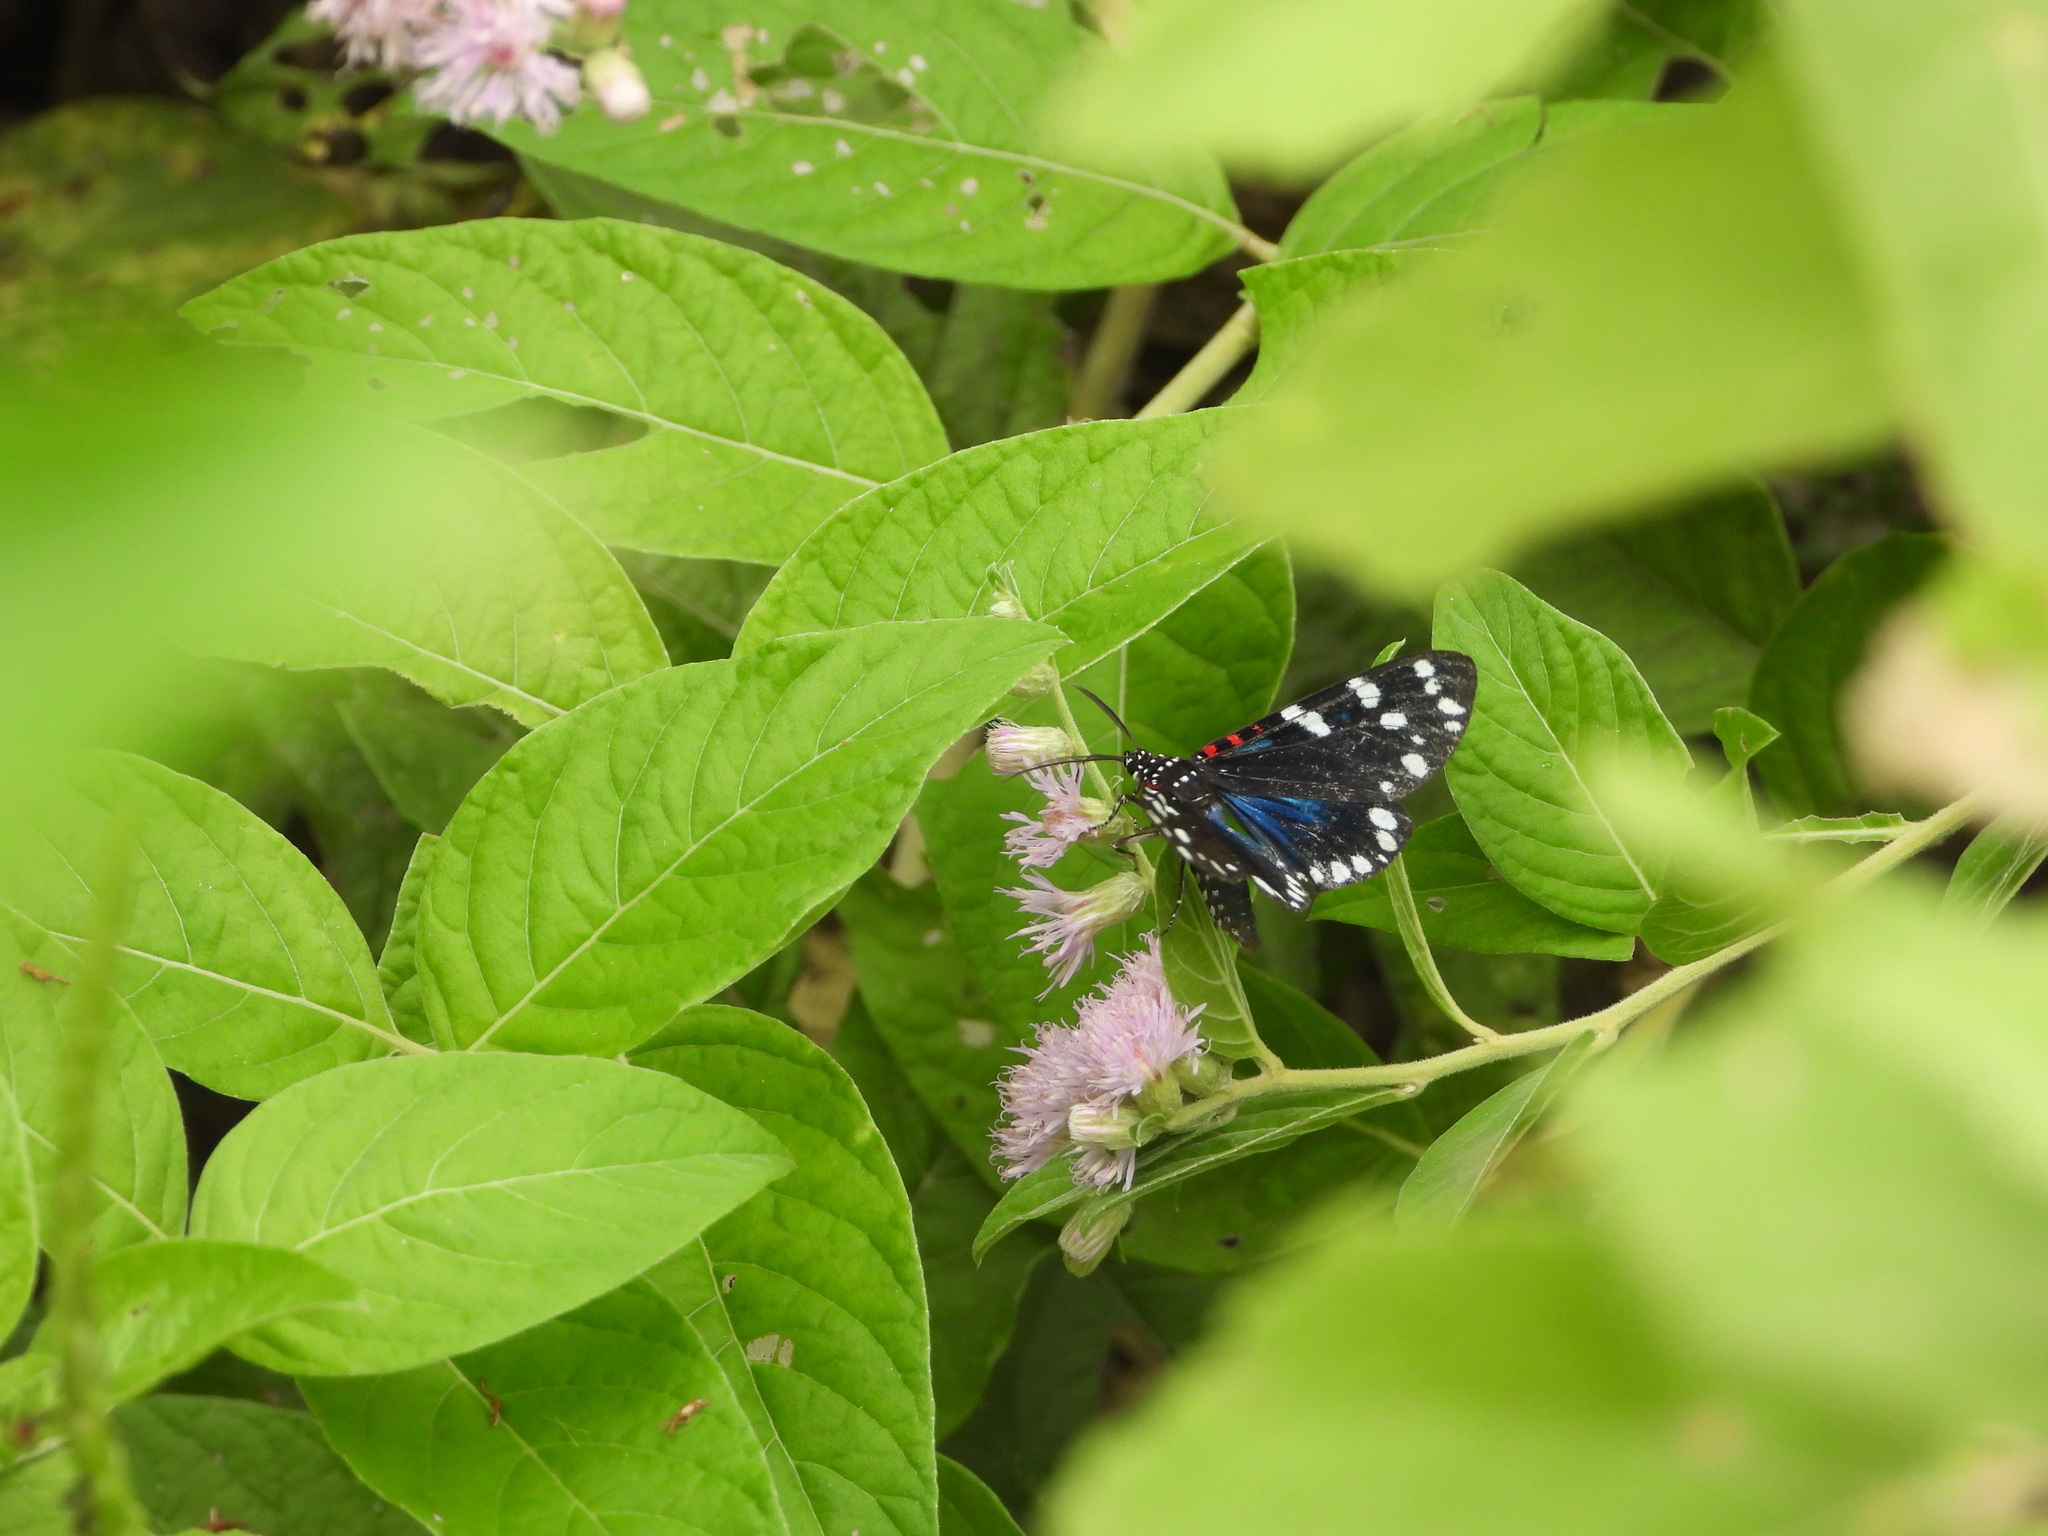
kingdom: Animalia
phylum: Arthropoda
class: Insecta
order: Lepidoptera
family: Erebidae
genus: Composia
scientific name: Composia fidelissima
